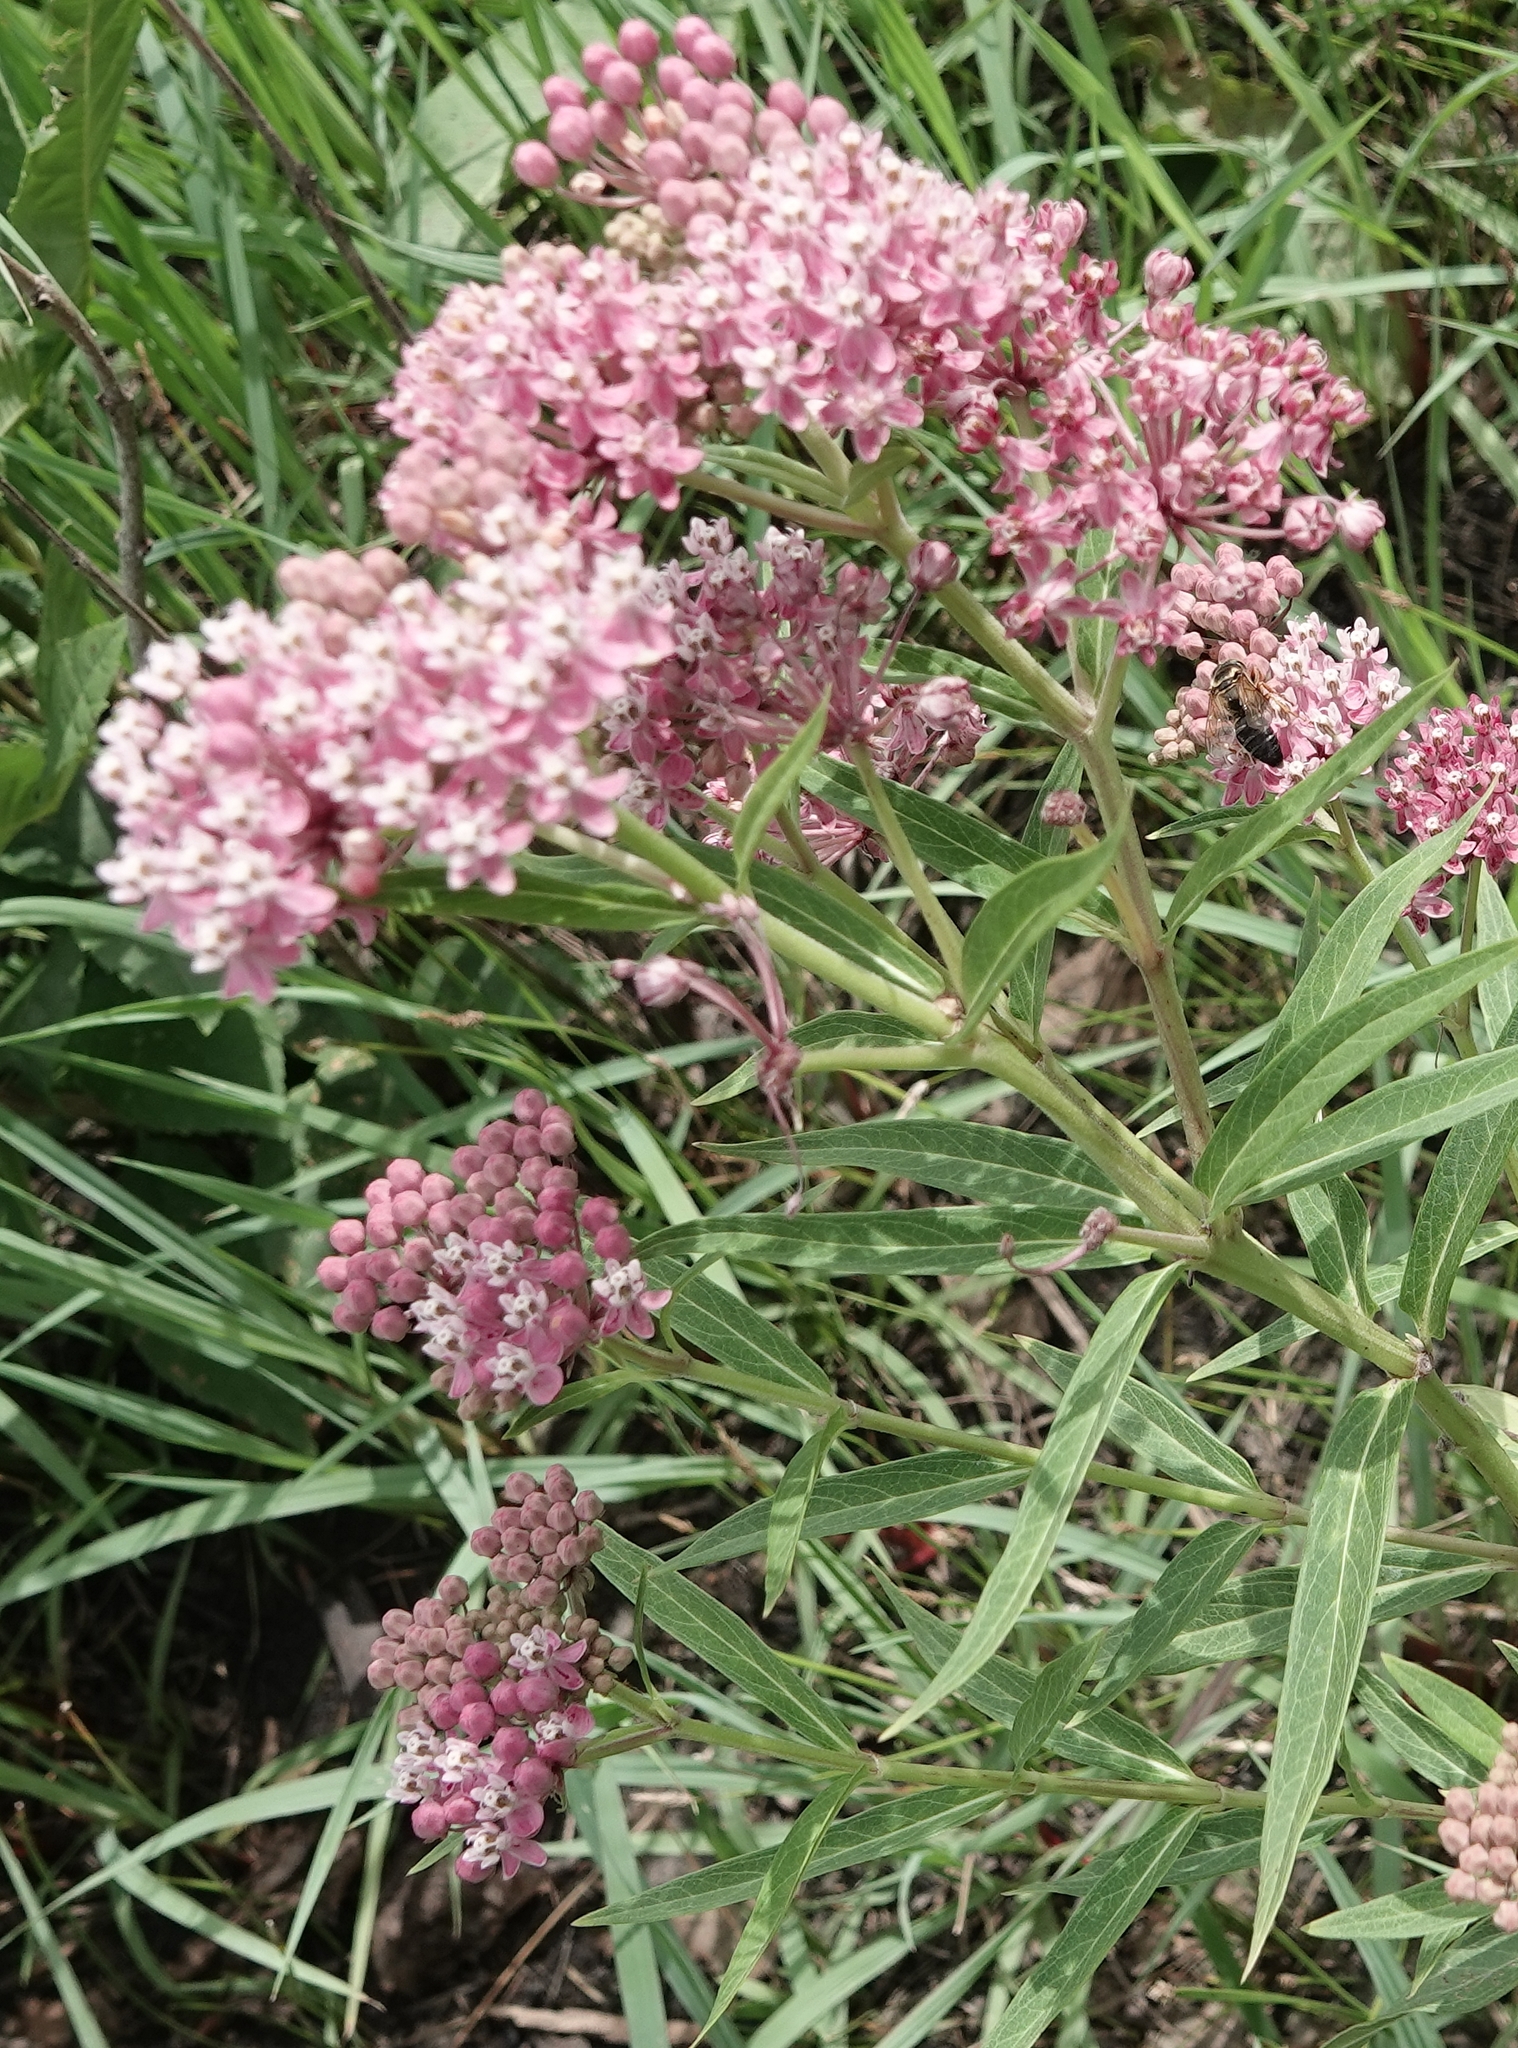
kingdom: Plantae
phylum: Tracheophyta
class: Magnoliopsida
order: Gentianales
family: Apocynaceae
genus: Asclepias
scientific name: Asclepias incarnata
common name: Swamp milkweed
